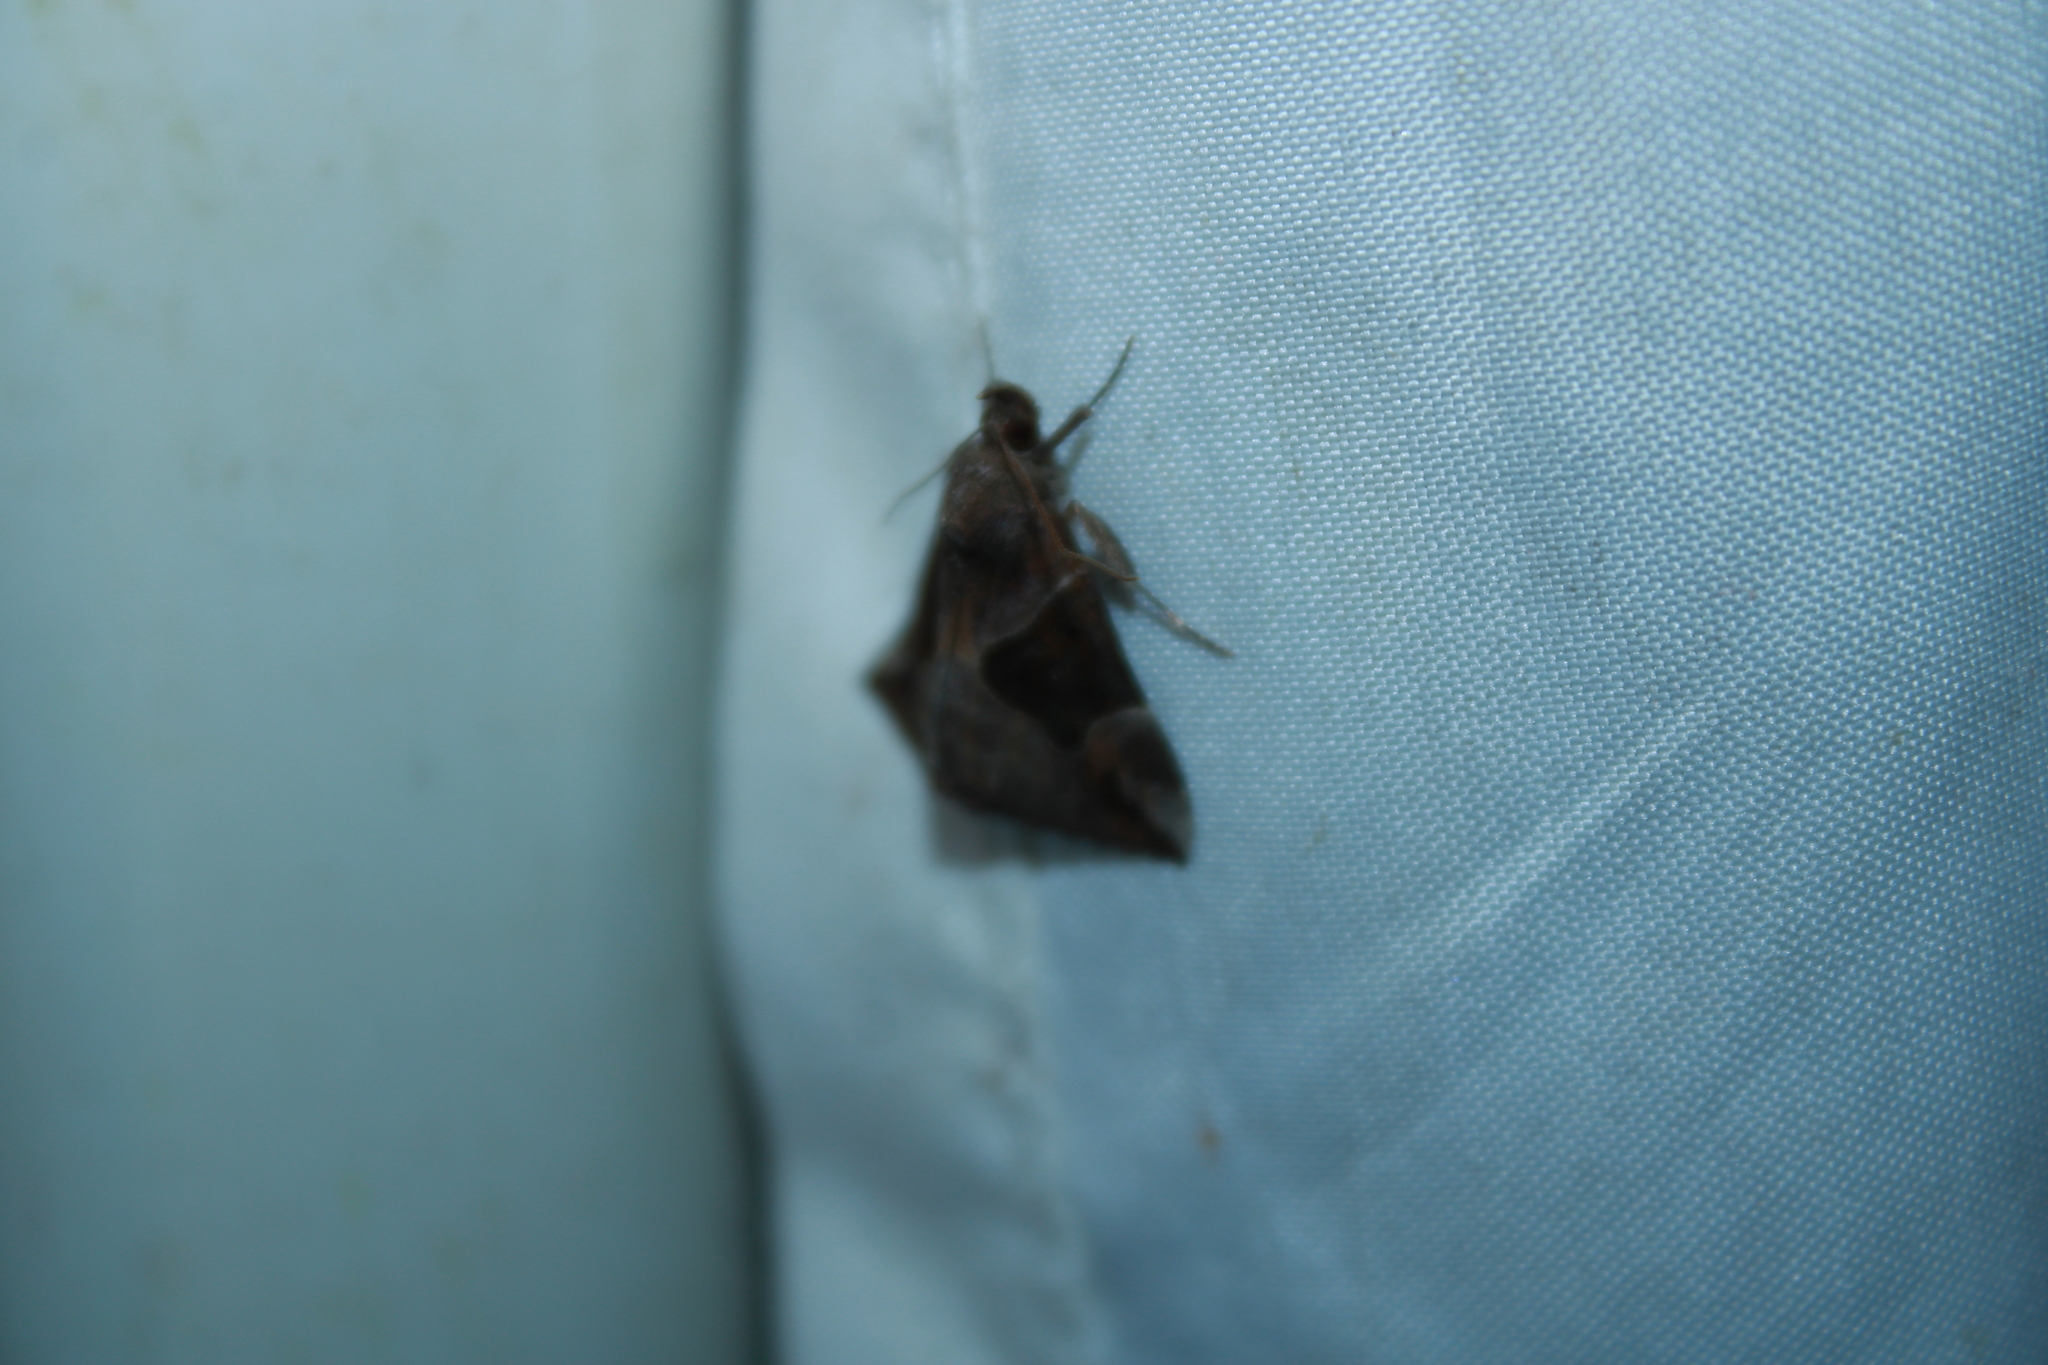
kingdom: Animalia
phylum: Arthropoda
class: Insecta
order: Lepidoptera
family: Erebidae
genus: Hypena
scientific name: Hypena manalis
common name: Flowing-line bomolocha moth
